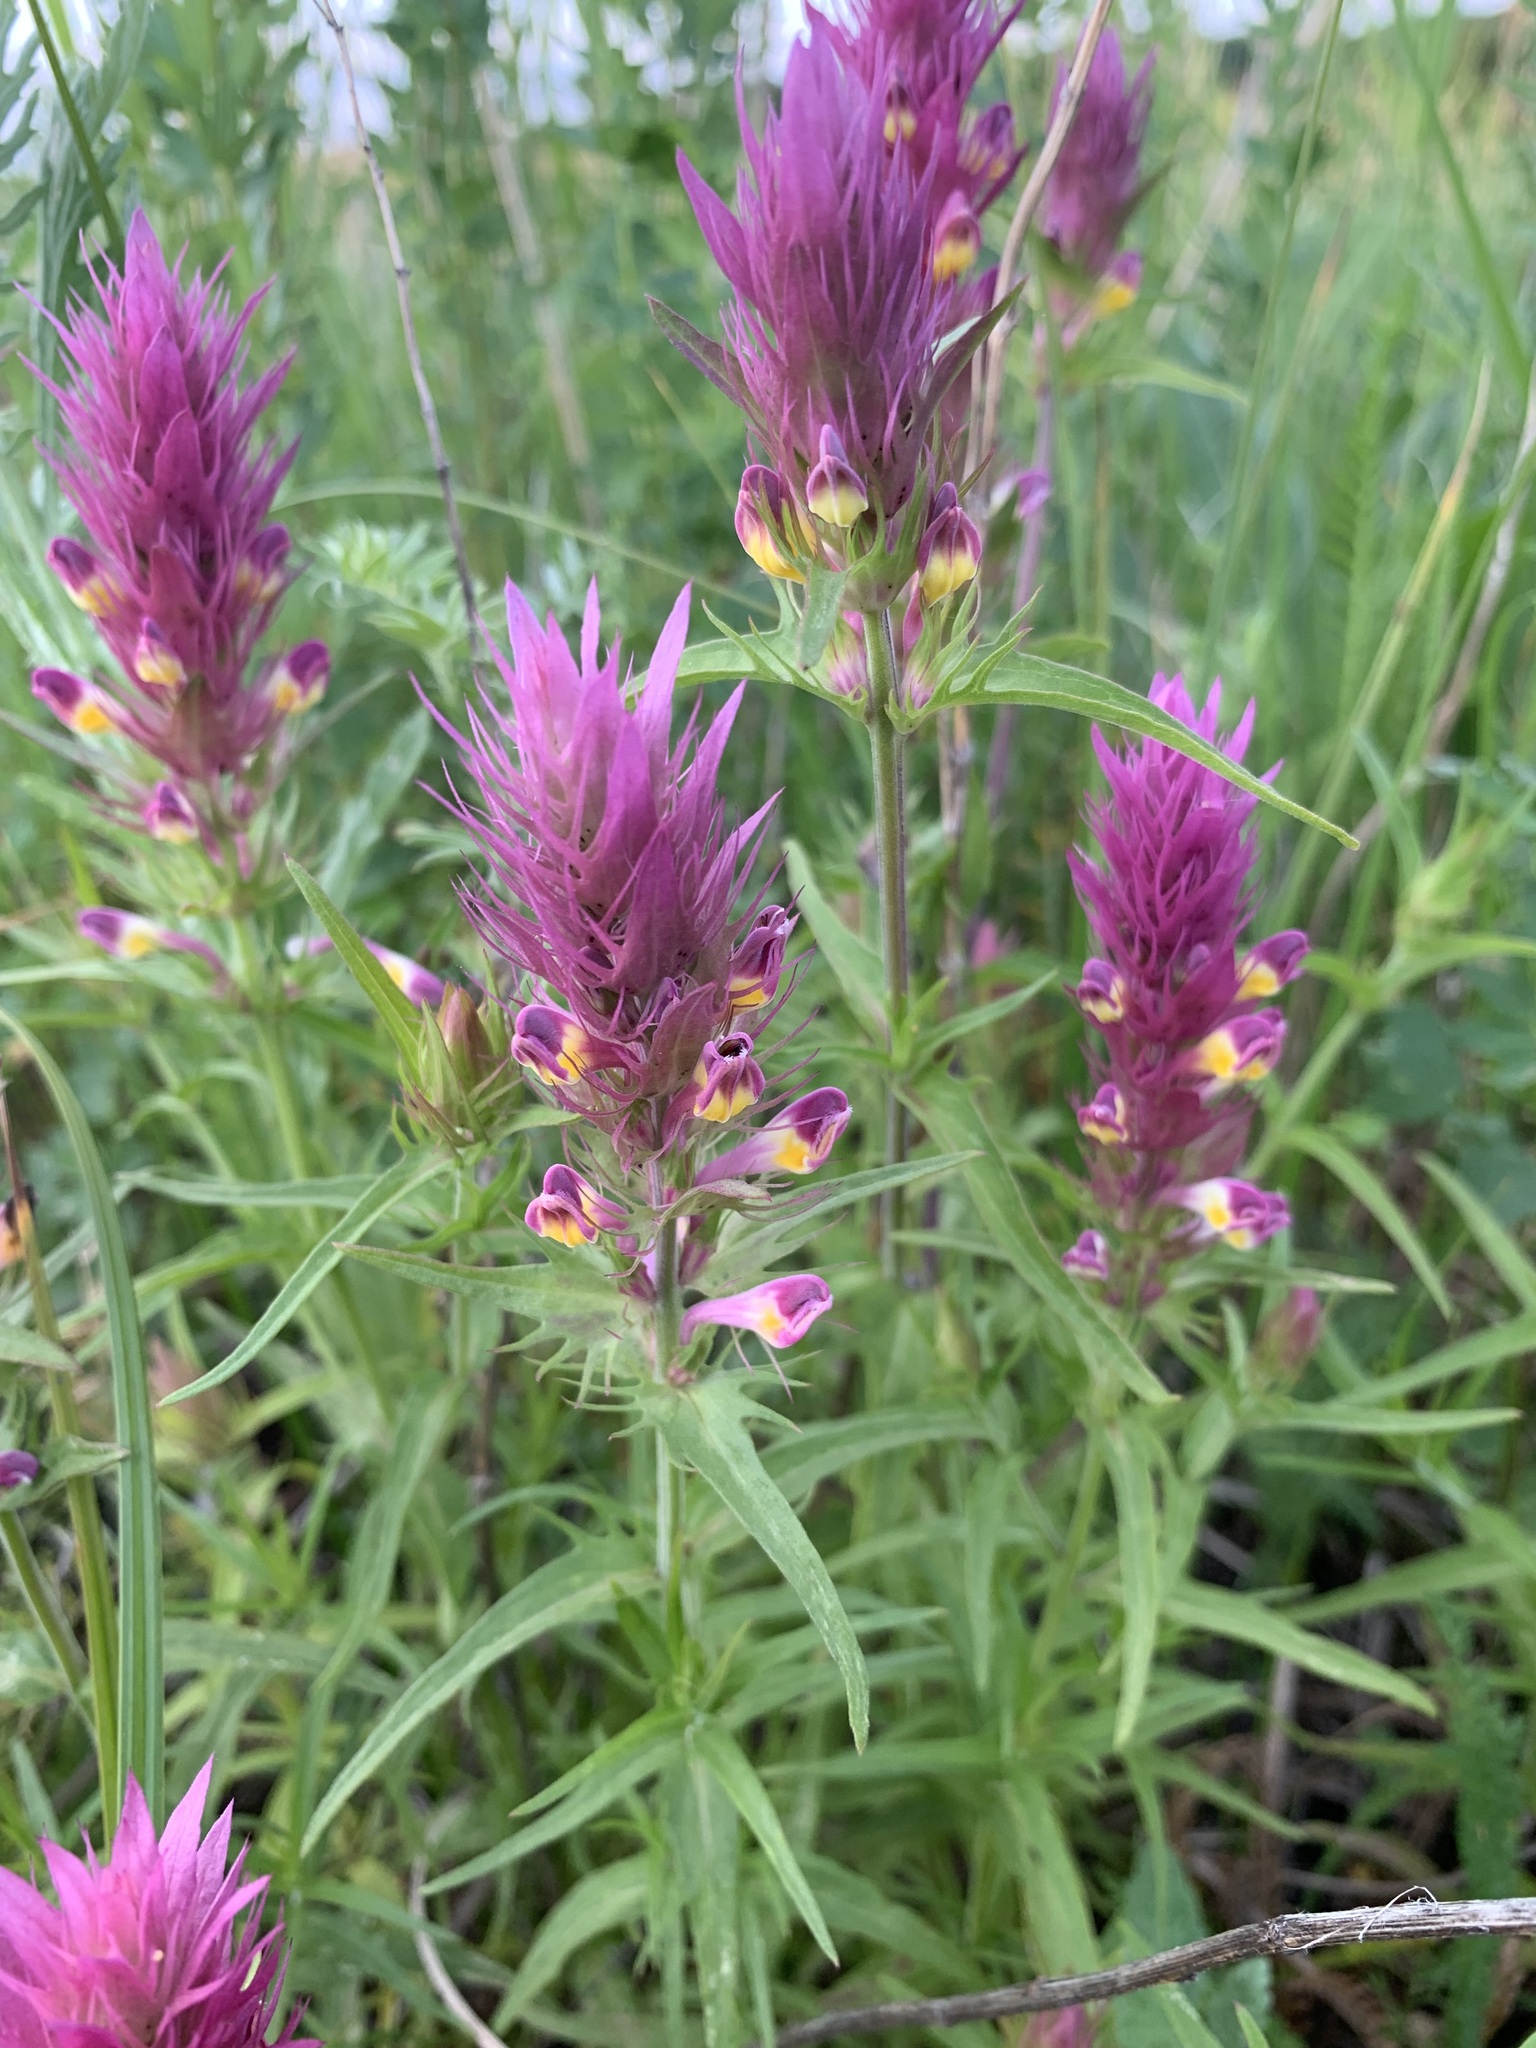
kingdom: Plantae
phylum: Tracheophyta
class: Magnoliopsida
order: Lamiales
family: Orobanchaceae
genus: Melampyrum
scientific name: Melampyrum arvense
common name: Field cow-wheat
